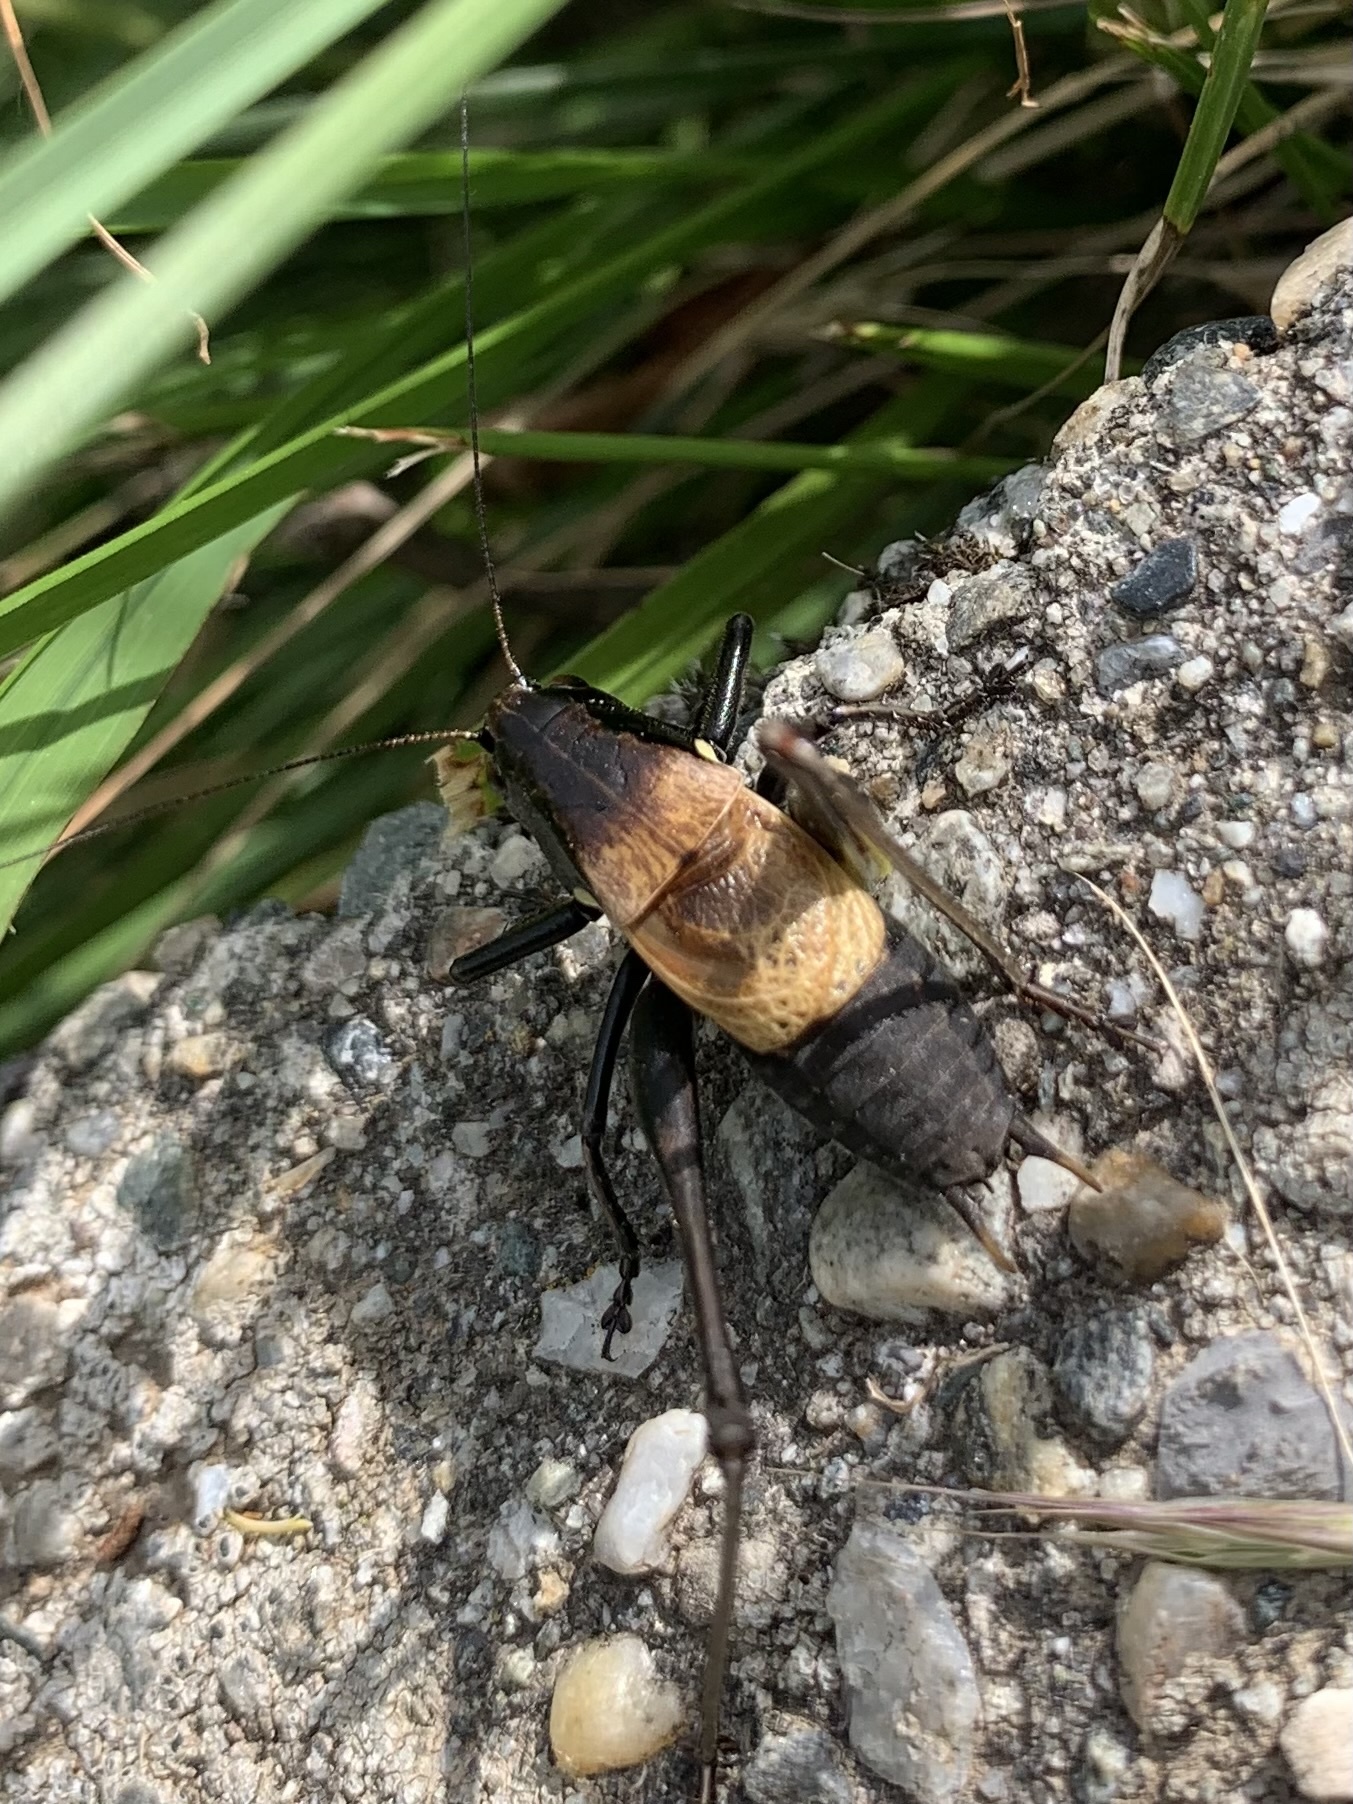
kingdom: Animalia
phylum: Arthropoda
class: Insecta
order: Orthoptera
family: Tettigoniidae
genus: Pholidoptera
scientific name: Pholidoptera aptera
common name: Alpine dark bush-cricket
